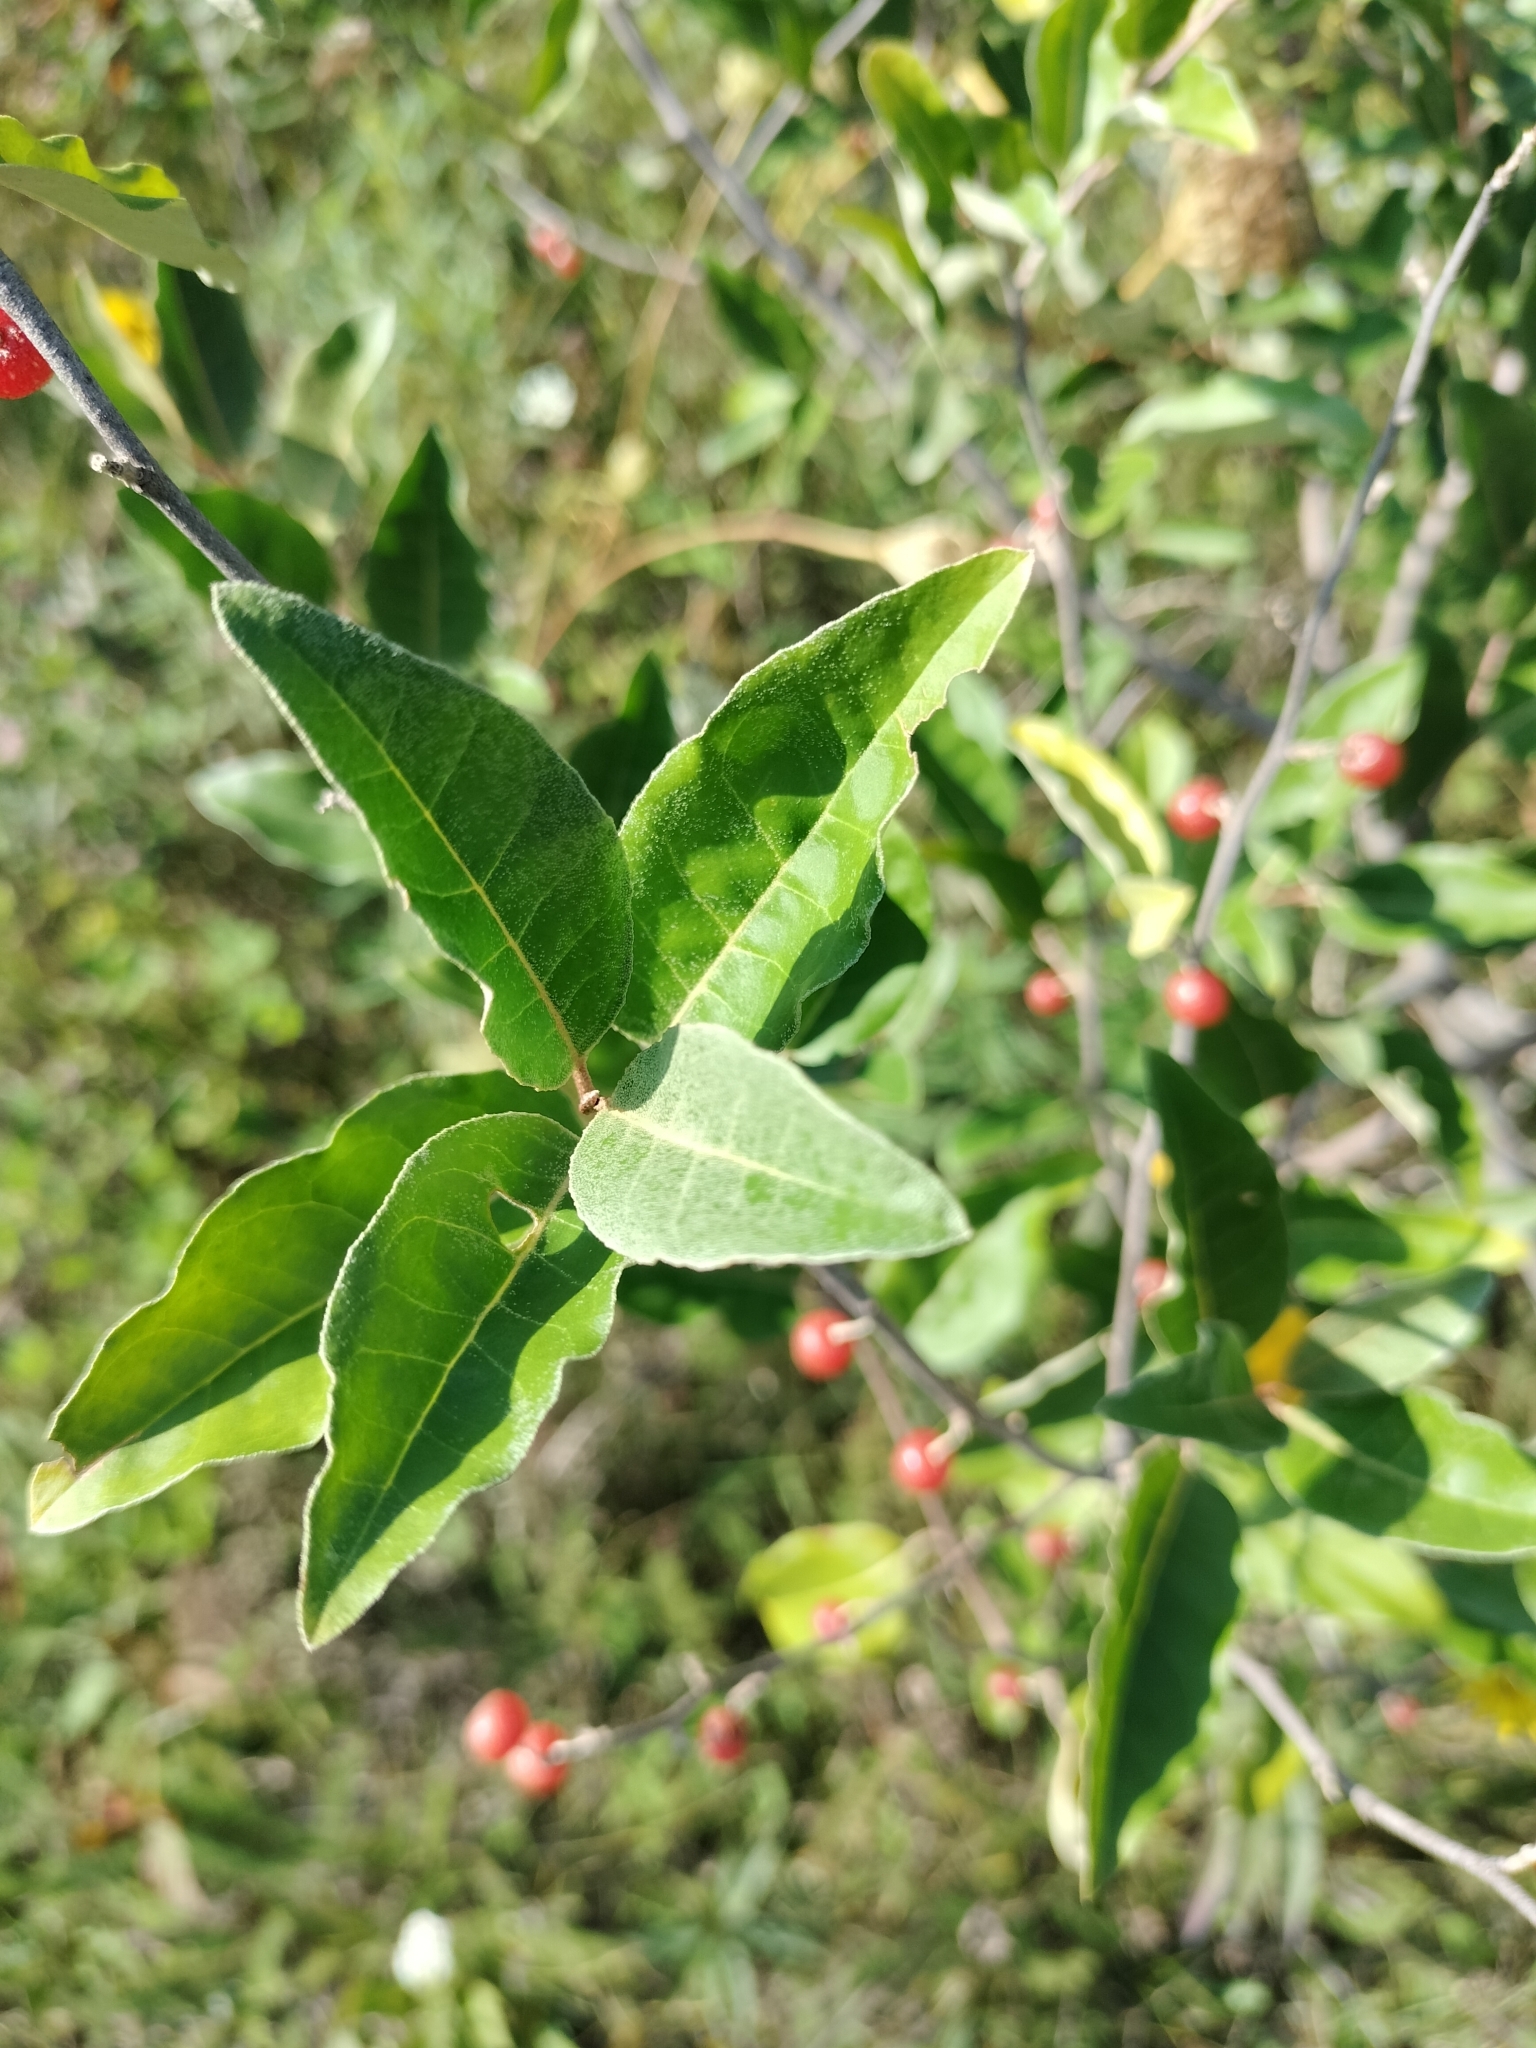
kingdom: Plantae
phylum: Tracheophyta
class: Magnoliopsida
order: Rosales
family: Elaeagnaceae
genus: Elaeagnus
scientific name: Elaeagnus umbellata
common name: Autumn olive
